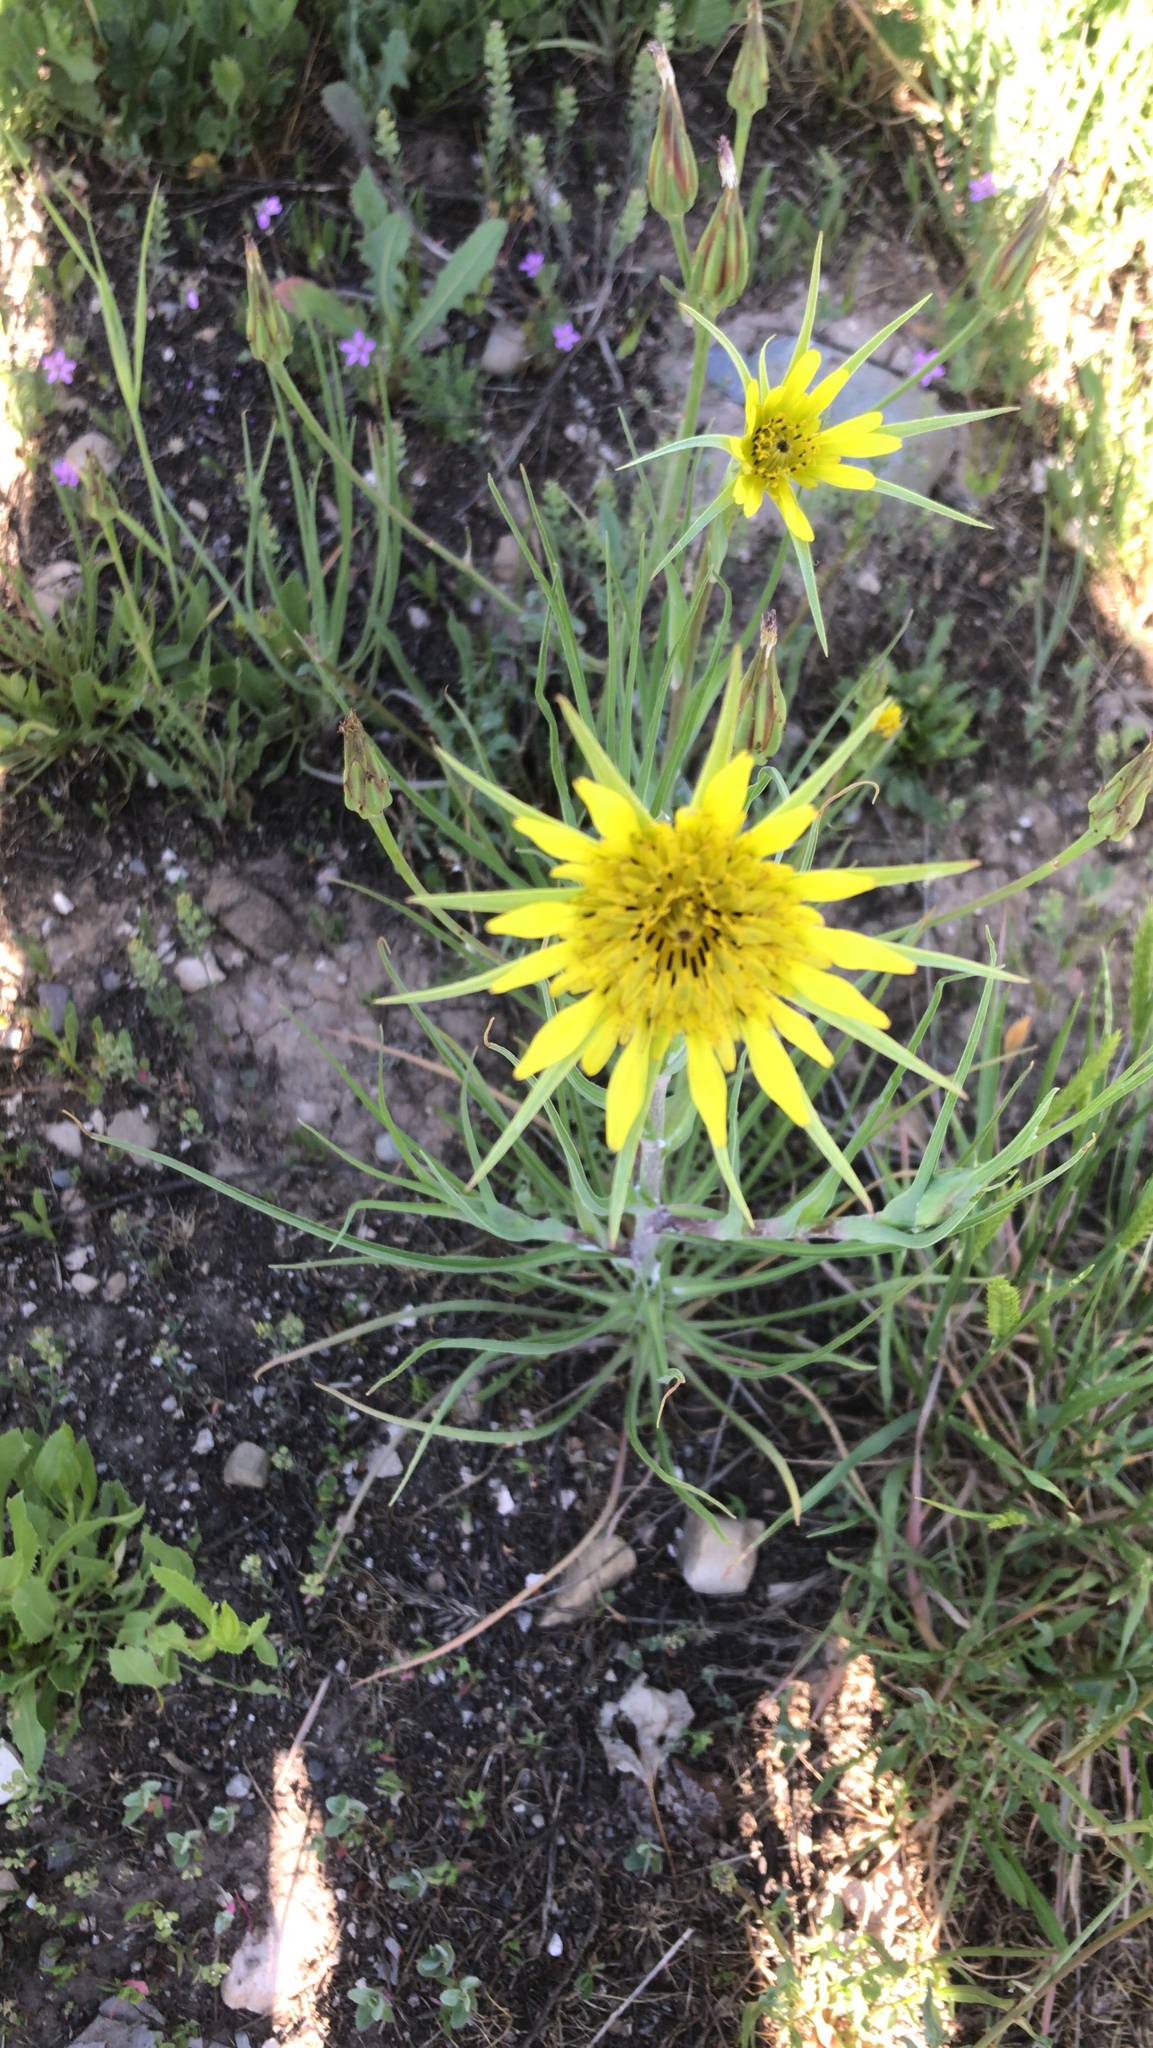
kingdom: Plantae
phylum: Tracheophyta
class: Magnoliopsida
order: Asterales
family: Asteraceae
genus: Tragopogon
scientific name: Tragopogon dubius
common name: Yellow salsify
